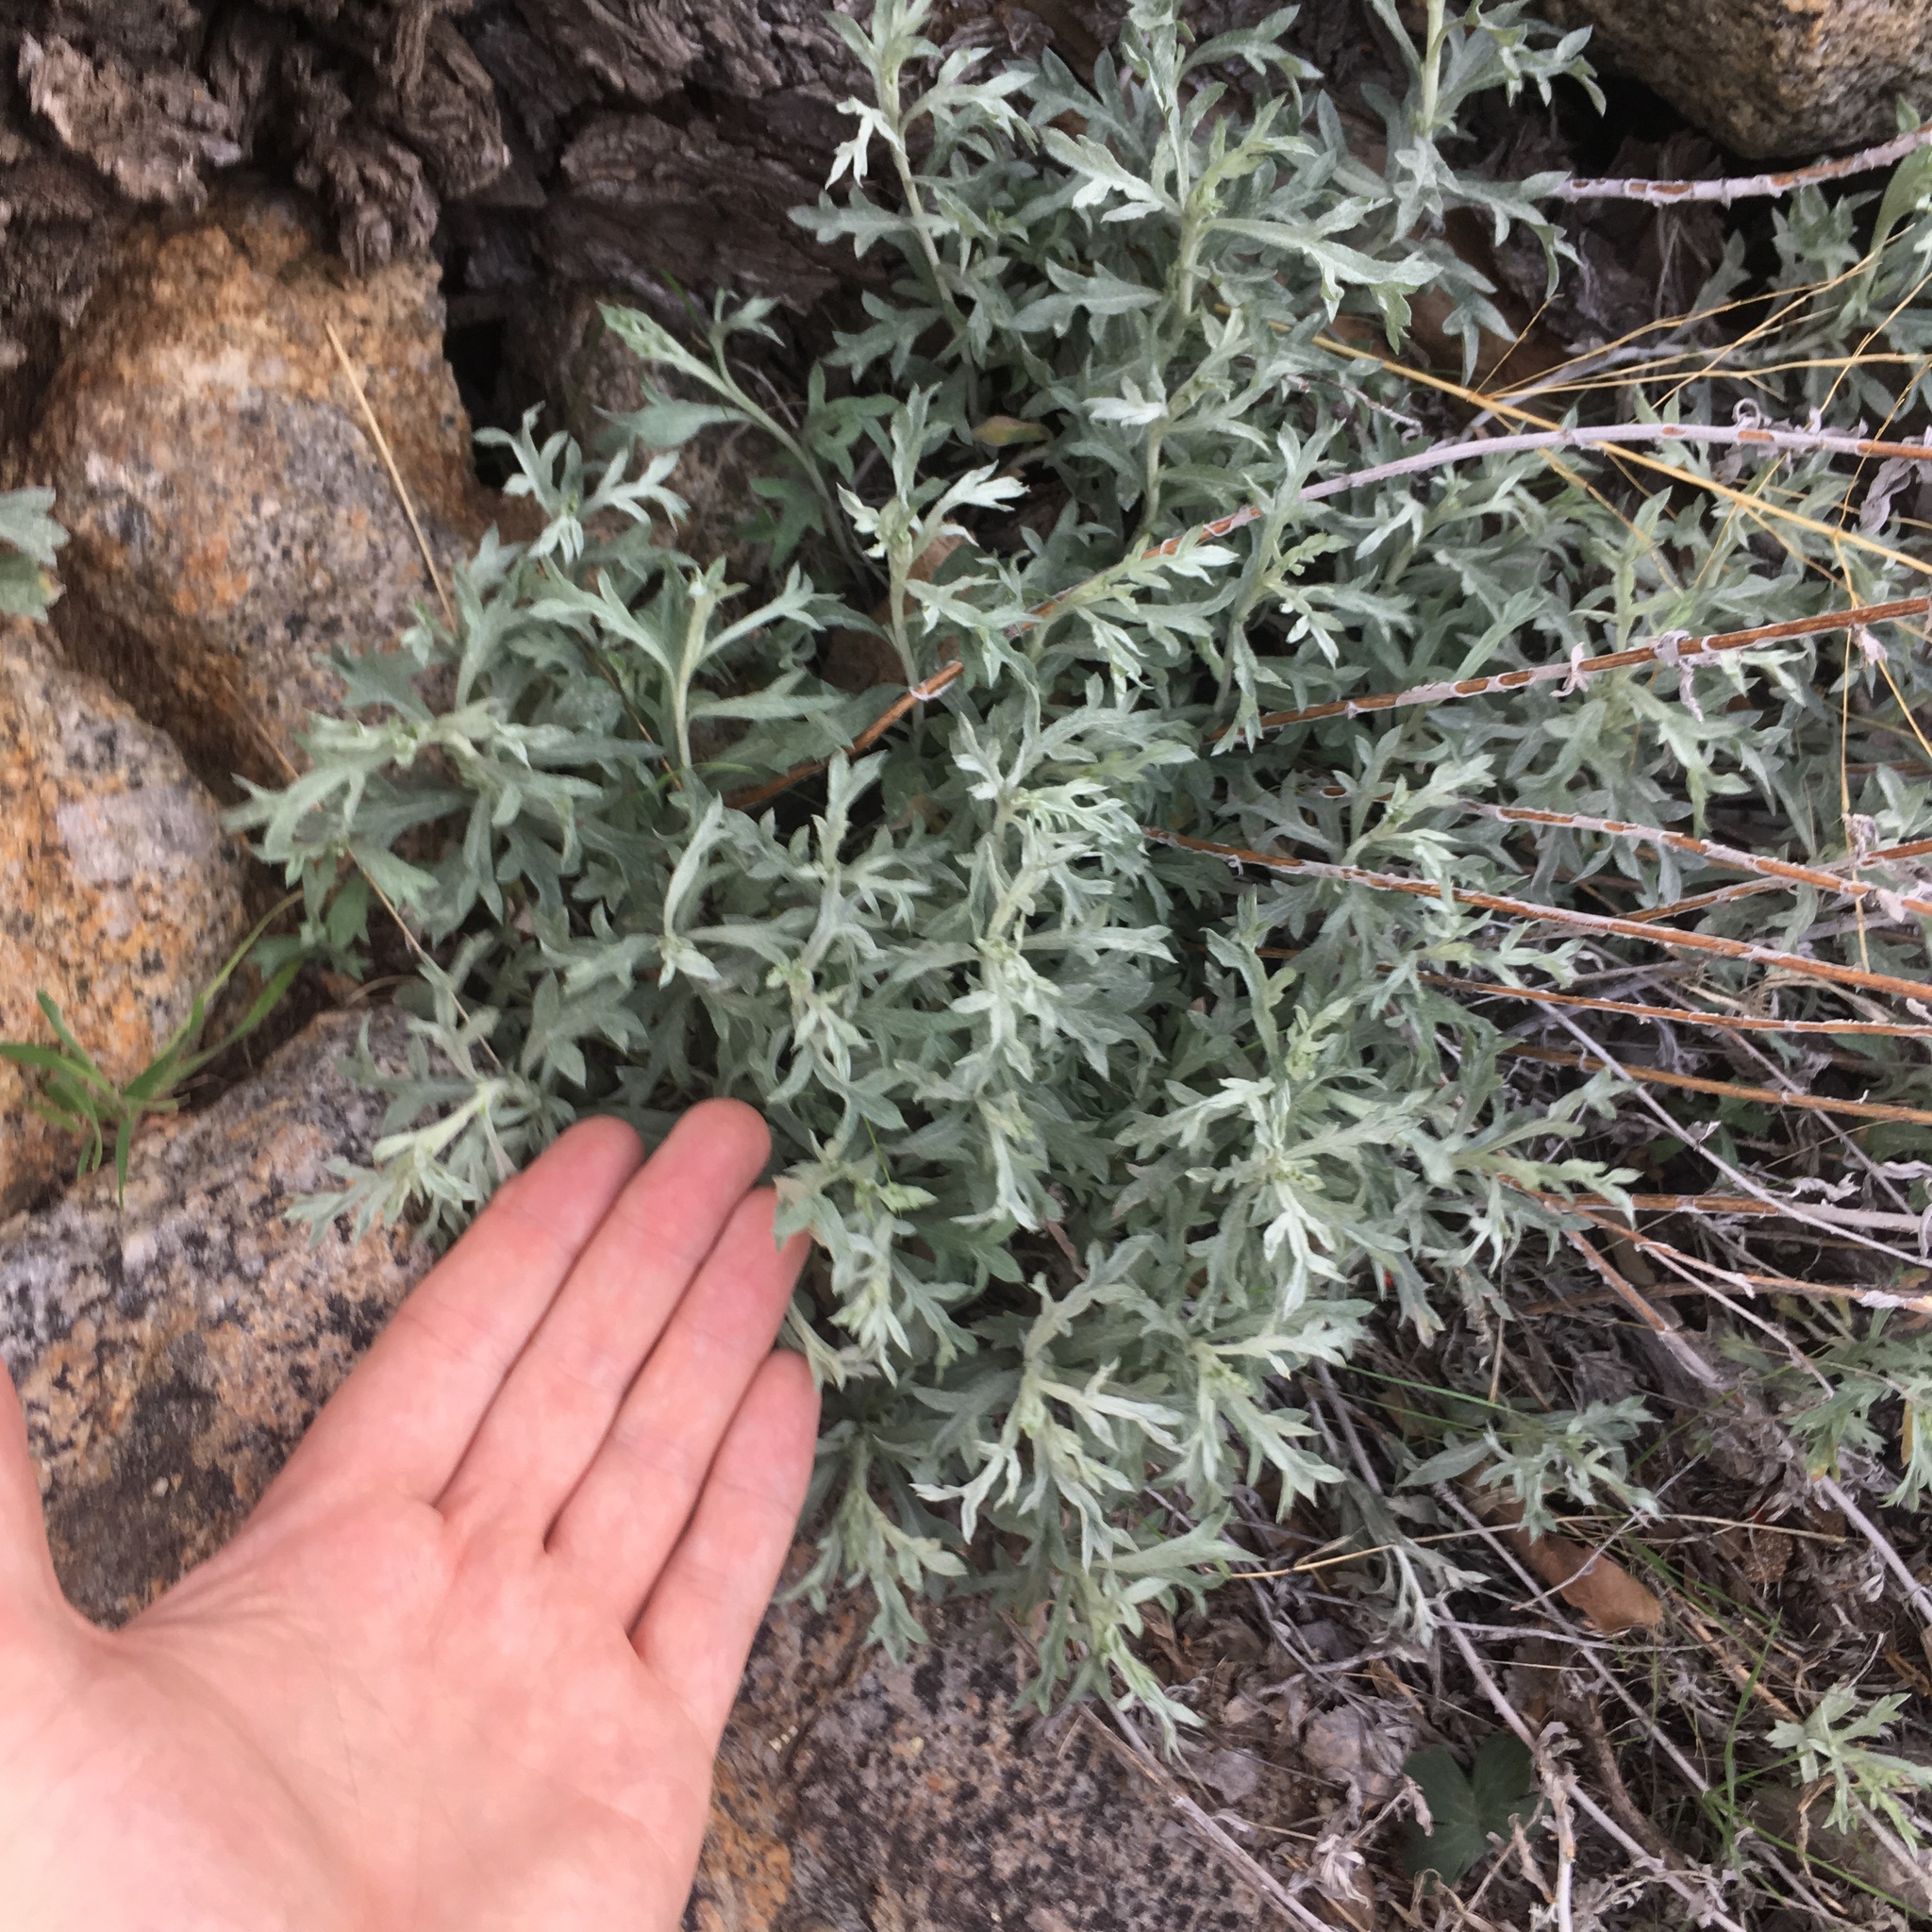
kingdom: Plantae
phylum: Tracheophyta
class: Magnoliopsida
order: Asterales
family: Asteraceae
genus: Artemisia
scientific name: Artemisia ludoviciana
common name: Western mugwort
